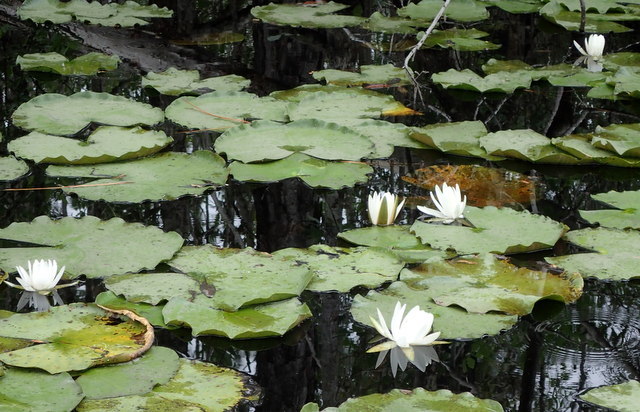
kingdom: Plantae
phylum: Tracheophyta
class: Magnoliopsida
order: Nymphaeales
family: Nymphaeaceae
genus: Nymphaea
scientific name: Nymphaea odorata
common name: Fragrant water-lily
